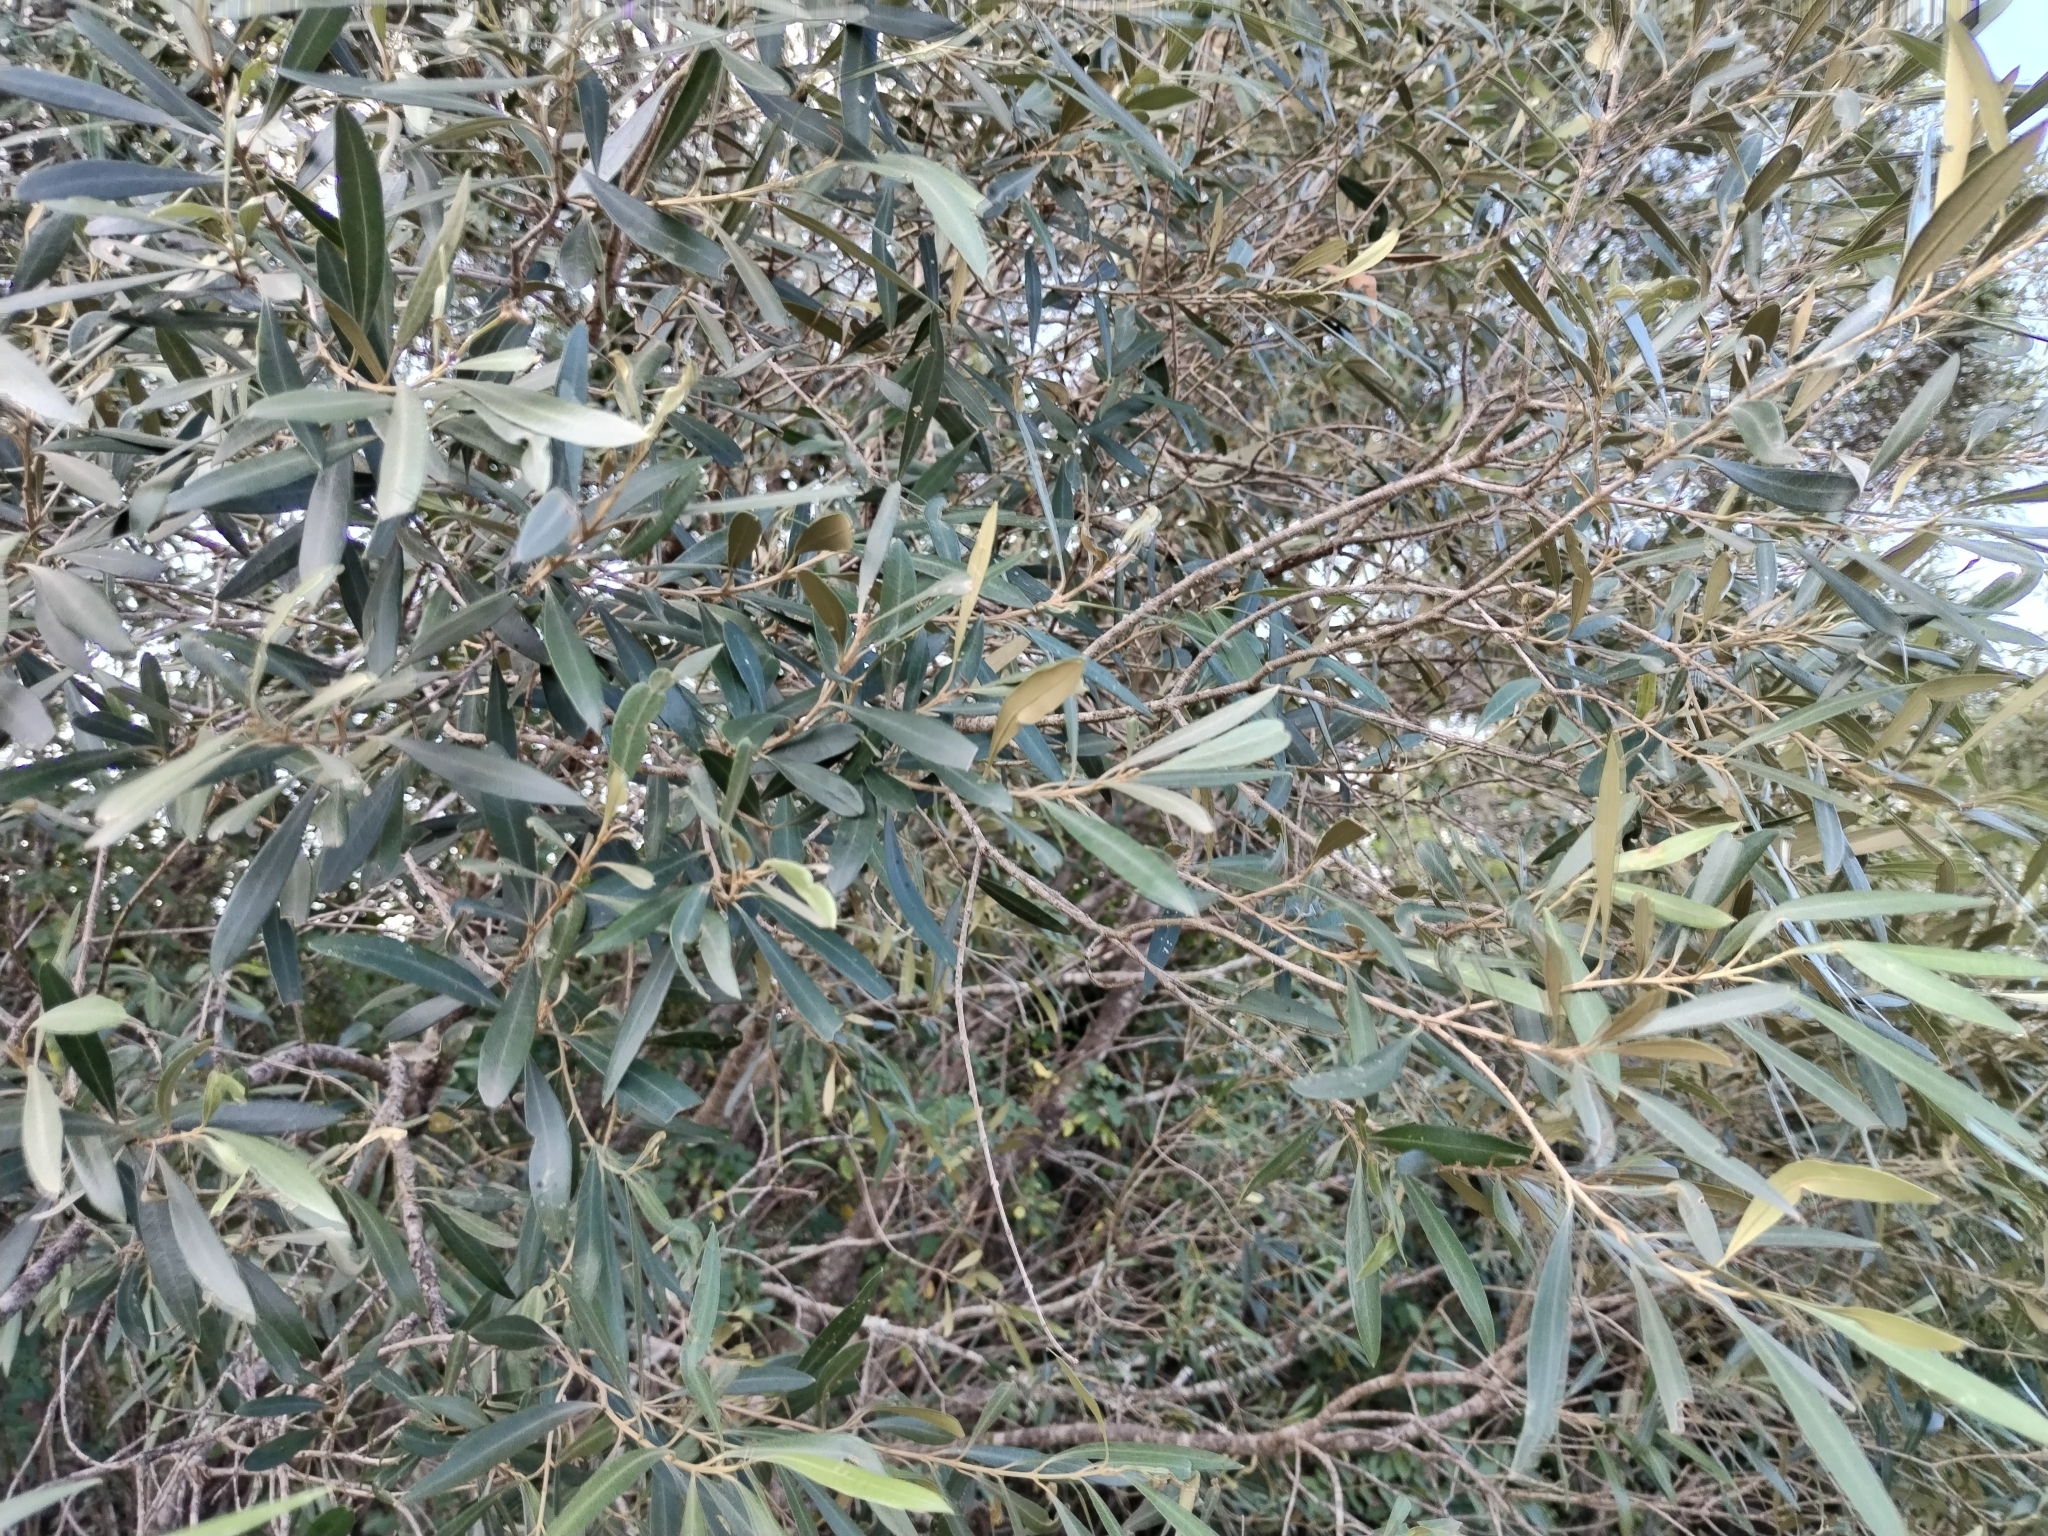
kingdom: Plantae
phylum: Tracheophyta
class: Magnoliopsida
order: Lamiales
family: Oleaceae
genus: Olea
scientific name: Olea europaea
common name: Olive
